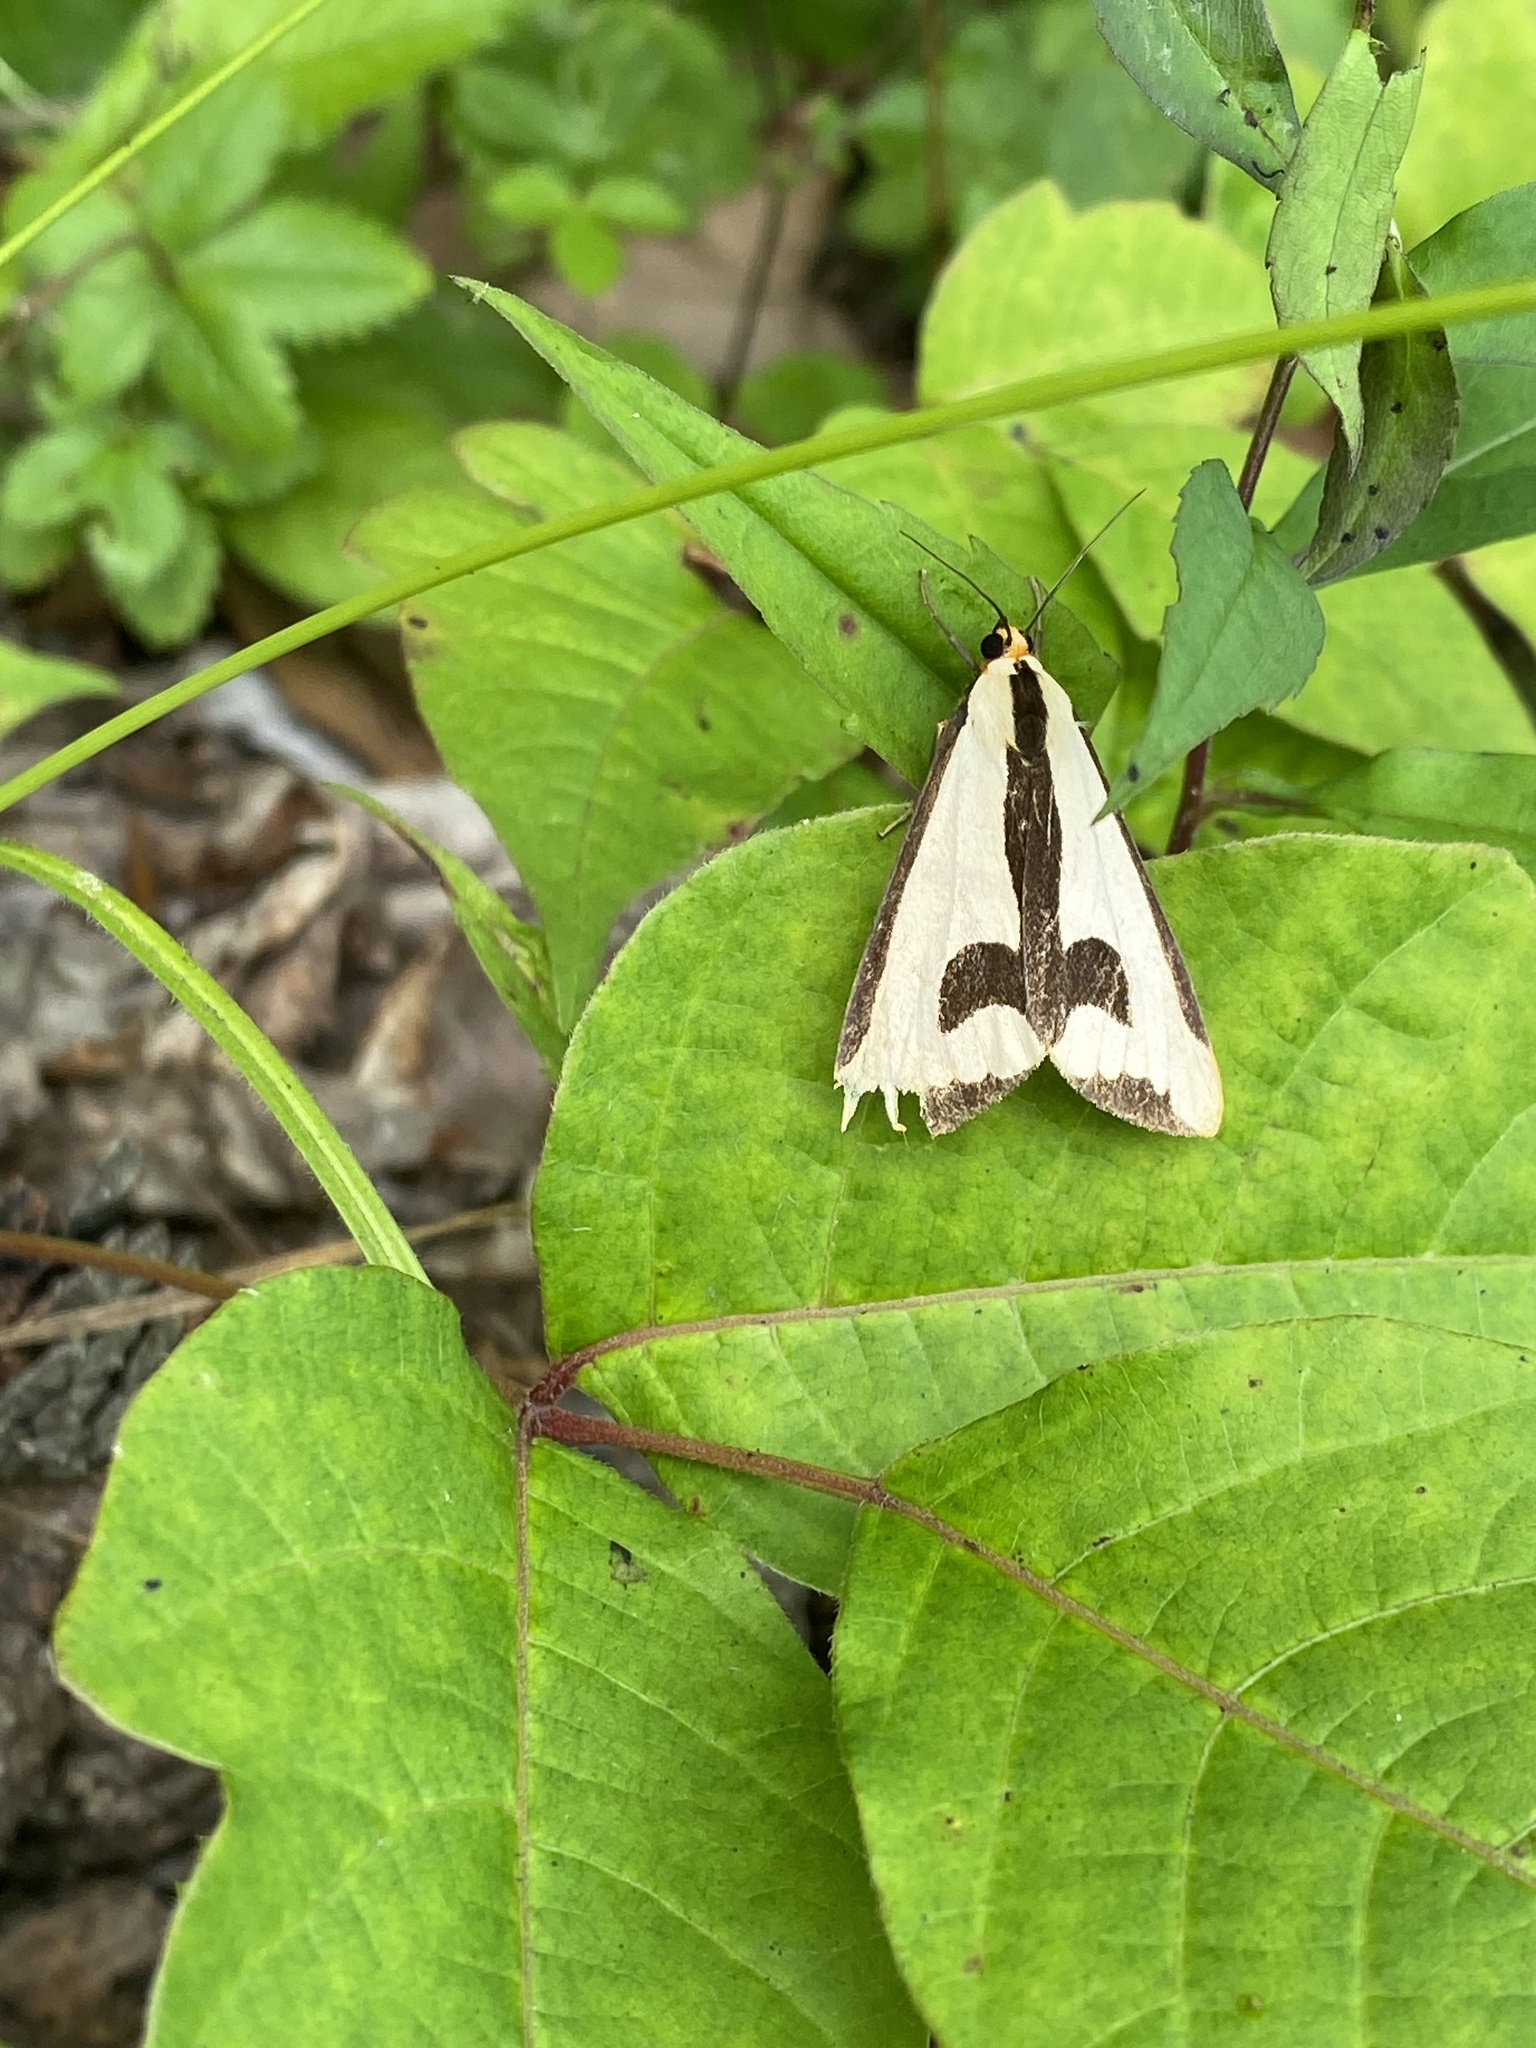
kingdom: Animalia
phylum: Arthropoda
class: Insecta
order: Lepidoptera
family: Erebidae
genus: Haploa
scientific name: Haploa clymene
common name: Clymene moth
